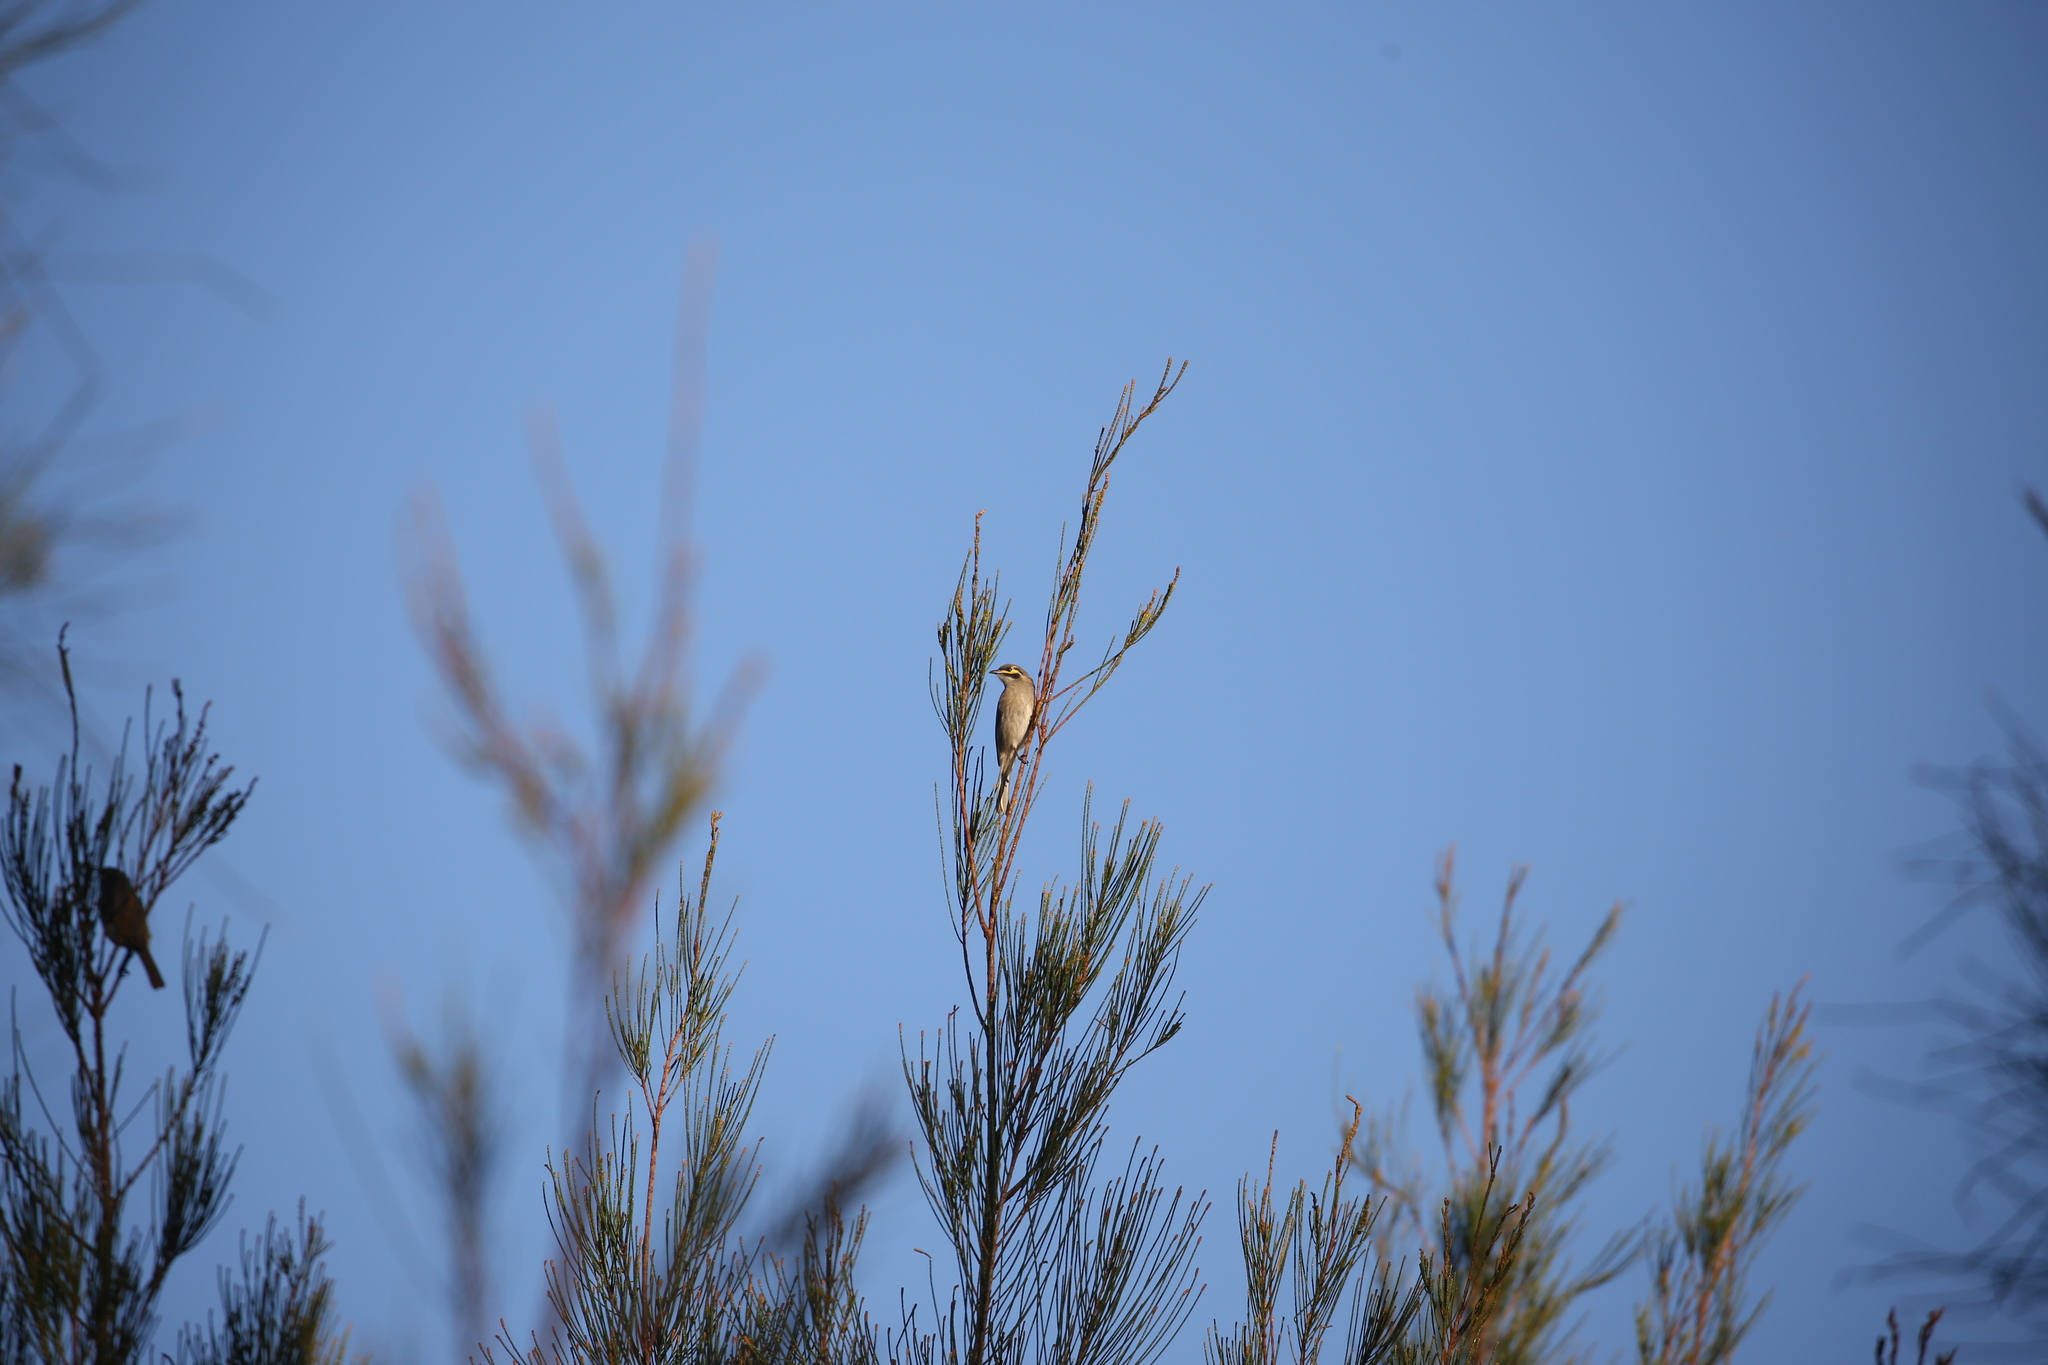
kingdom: Animalia
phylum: Chordata
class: Aves
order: Passeriformes
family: Meliphagidae
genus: Caligavis
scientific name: Caligavis chrysops
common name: Yellow-faced honeyeater
